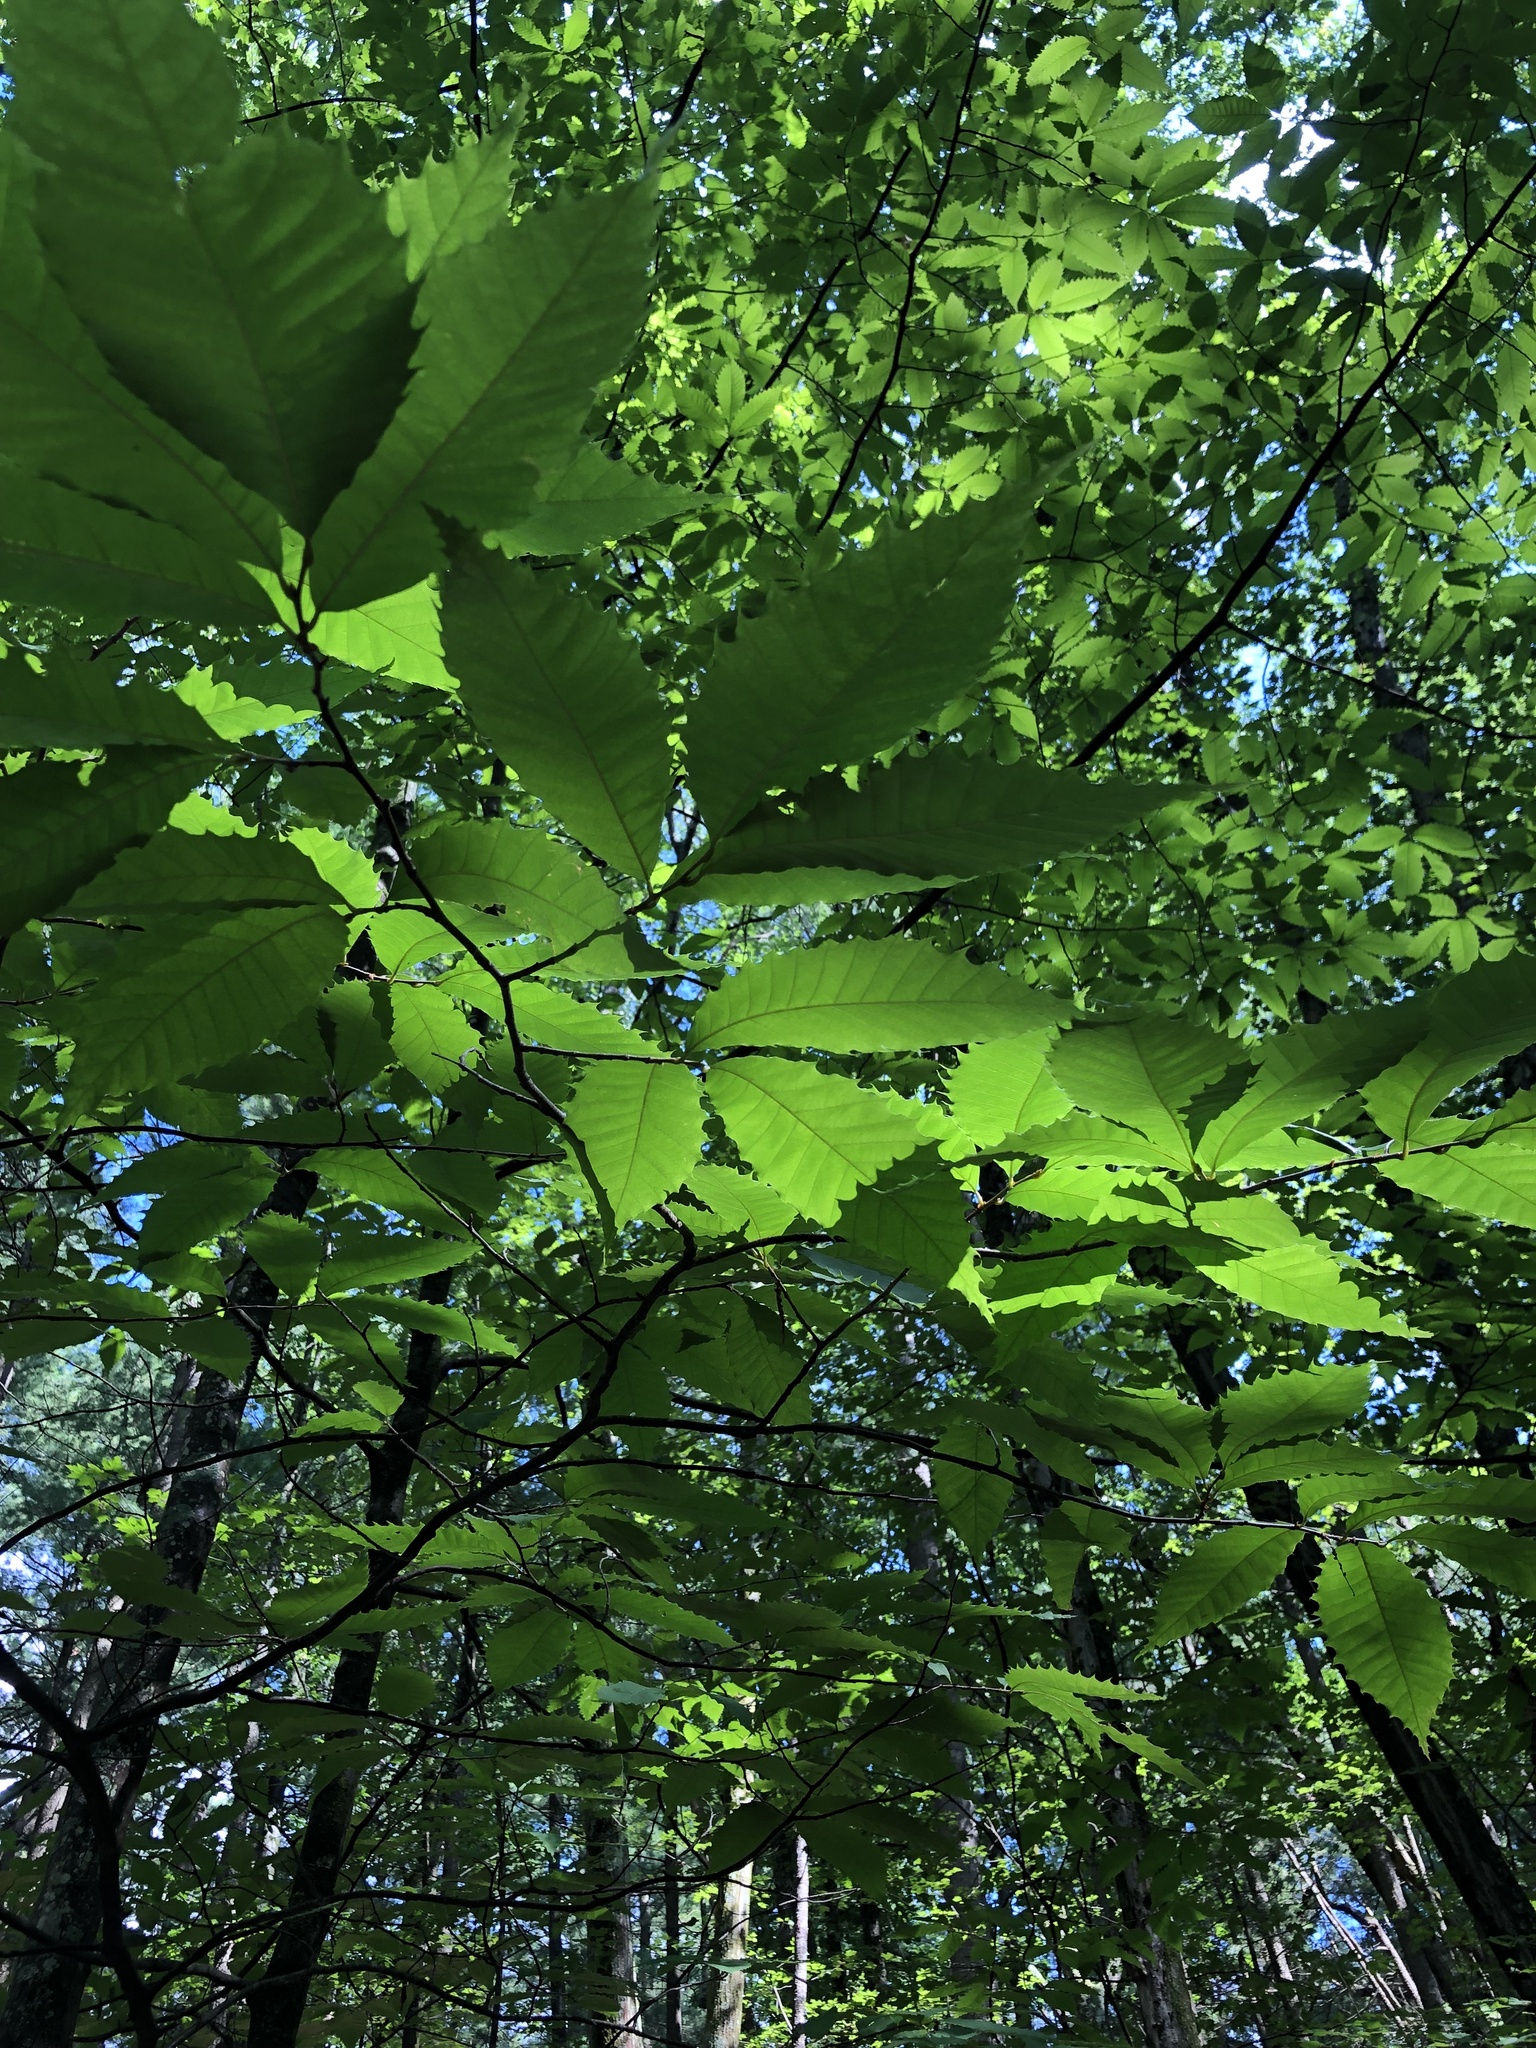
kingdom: Plantae
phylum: Tracheophyta
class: Magnoliopsida
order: Fagales
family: Fagaceae
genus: Castanea
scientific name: Castanea dentata
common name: American chestnut
